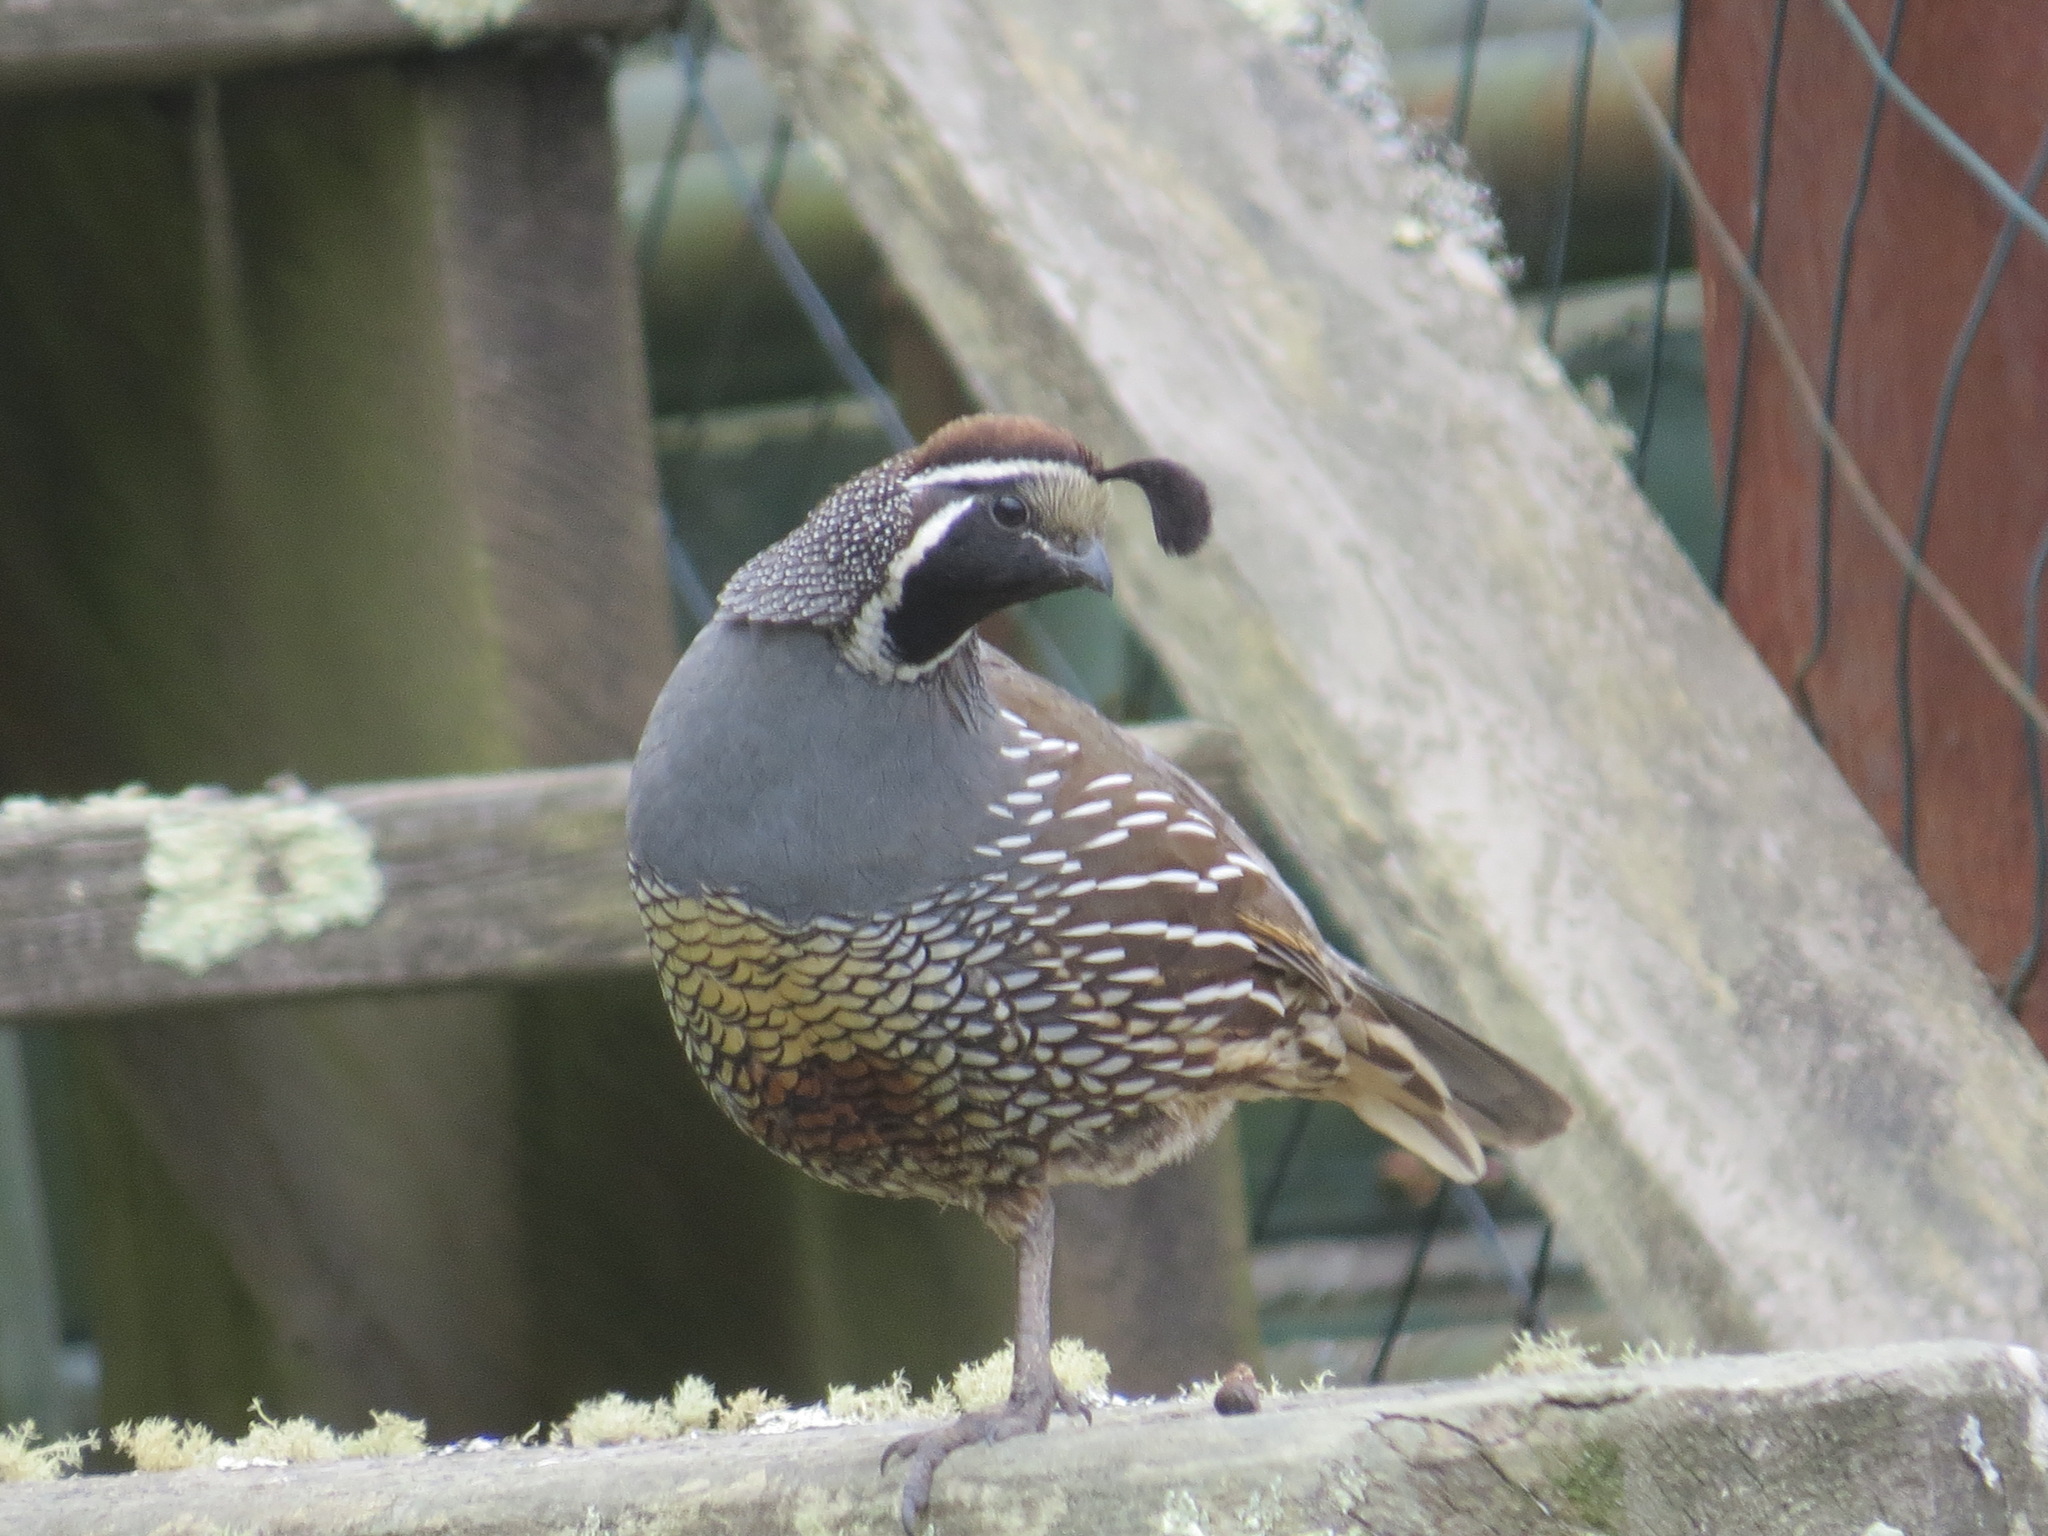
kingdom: Animalia
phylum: Chordata
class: Aves
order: Galliformes
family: Odontophoridae
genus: Callipepla
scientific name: Callipepla californica
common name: California quail
